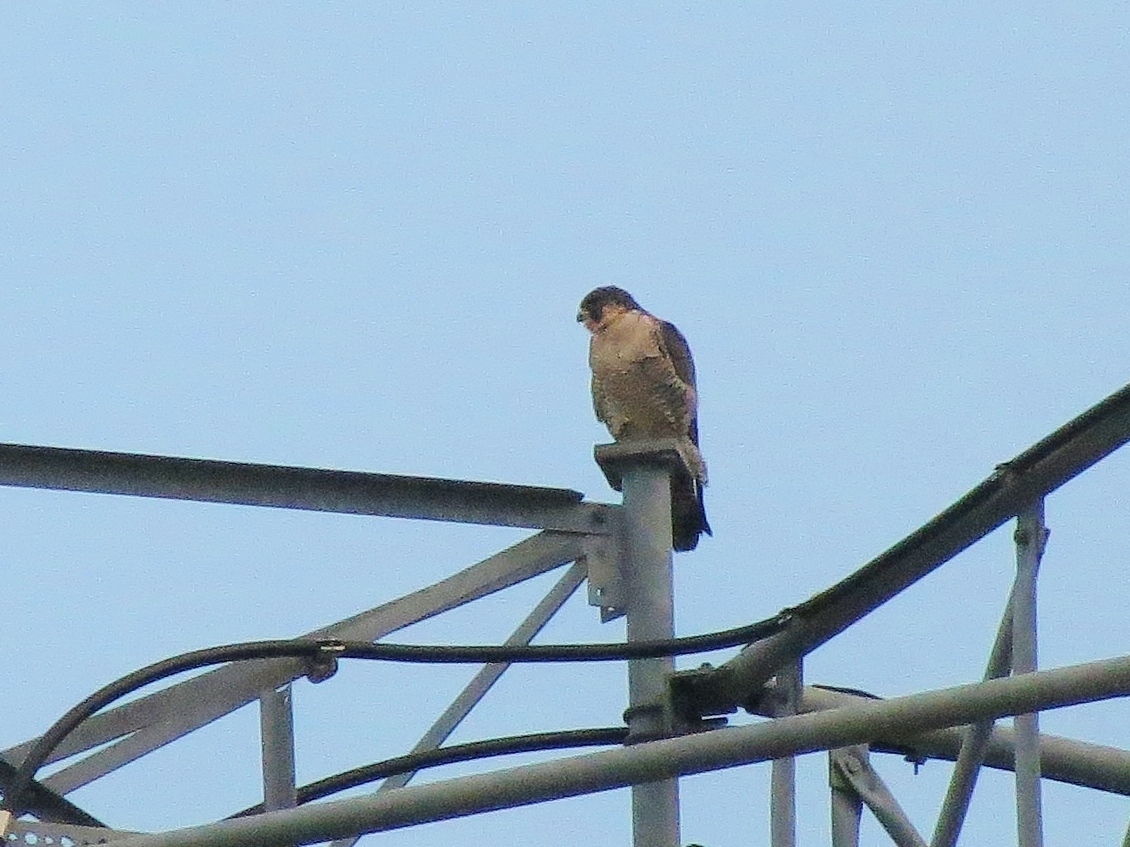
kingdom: Animalia
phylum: Chordata
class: Aves
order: Falconiformes
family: Falconidae
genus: Falco
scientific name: Falco peregrinus
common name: Peregrine falcon
